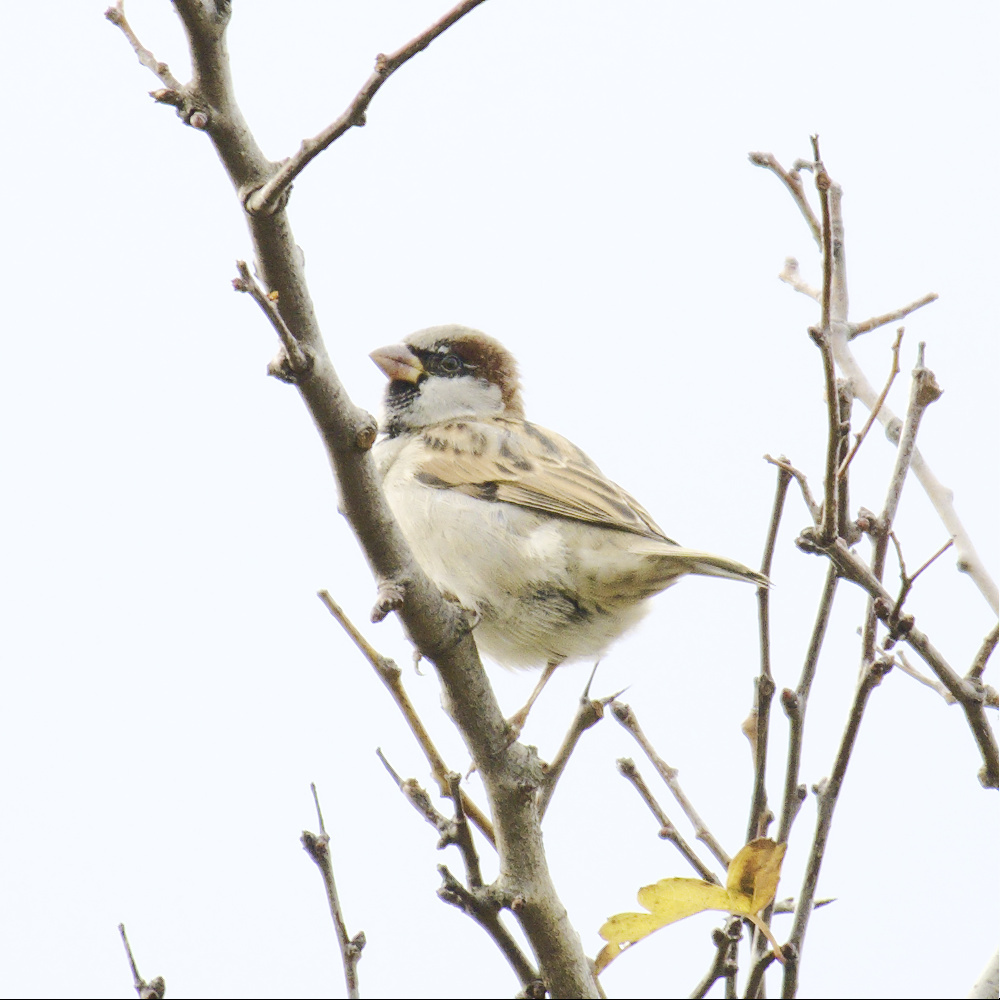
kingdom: Animalia
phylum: Chordata
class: Aves
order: Passeriformes
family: Passeridae
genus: Passer
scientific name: Passer domesticus
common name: House sparrow
